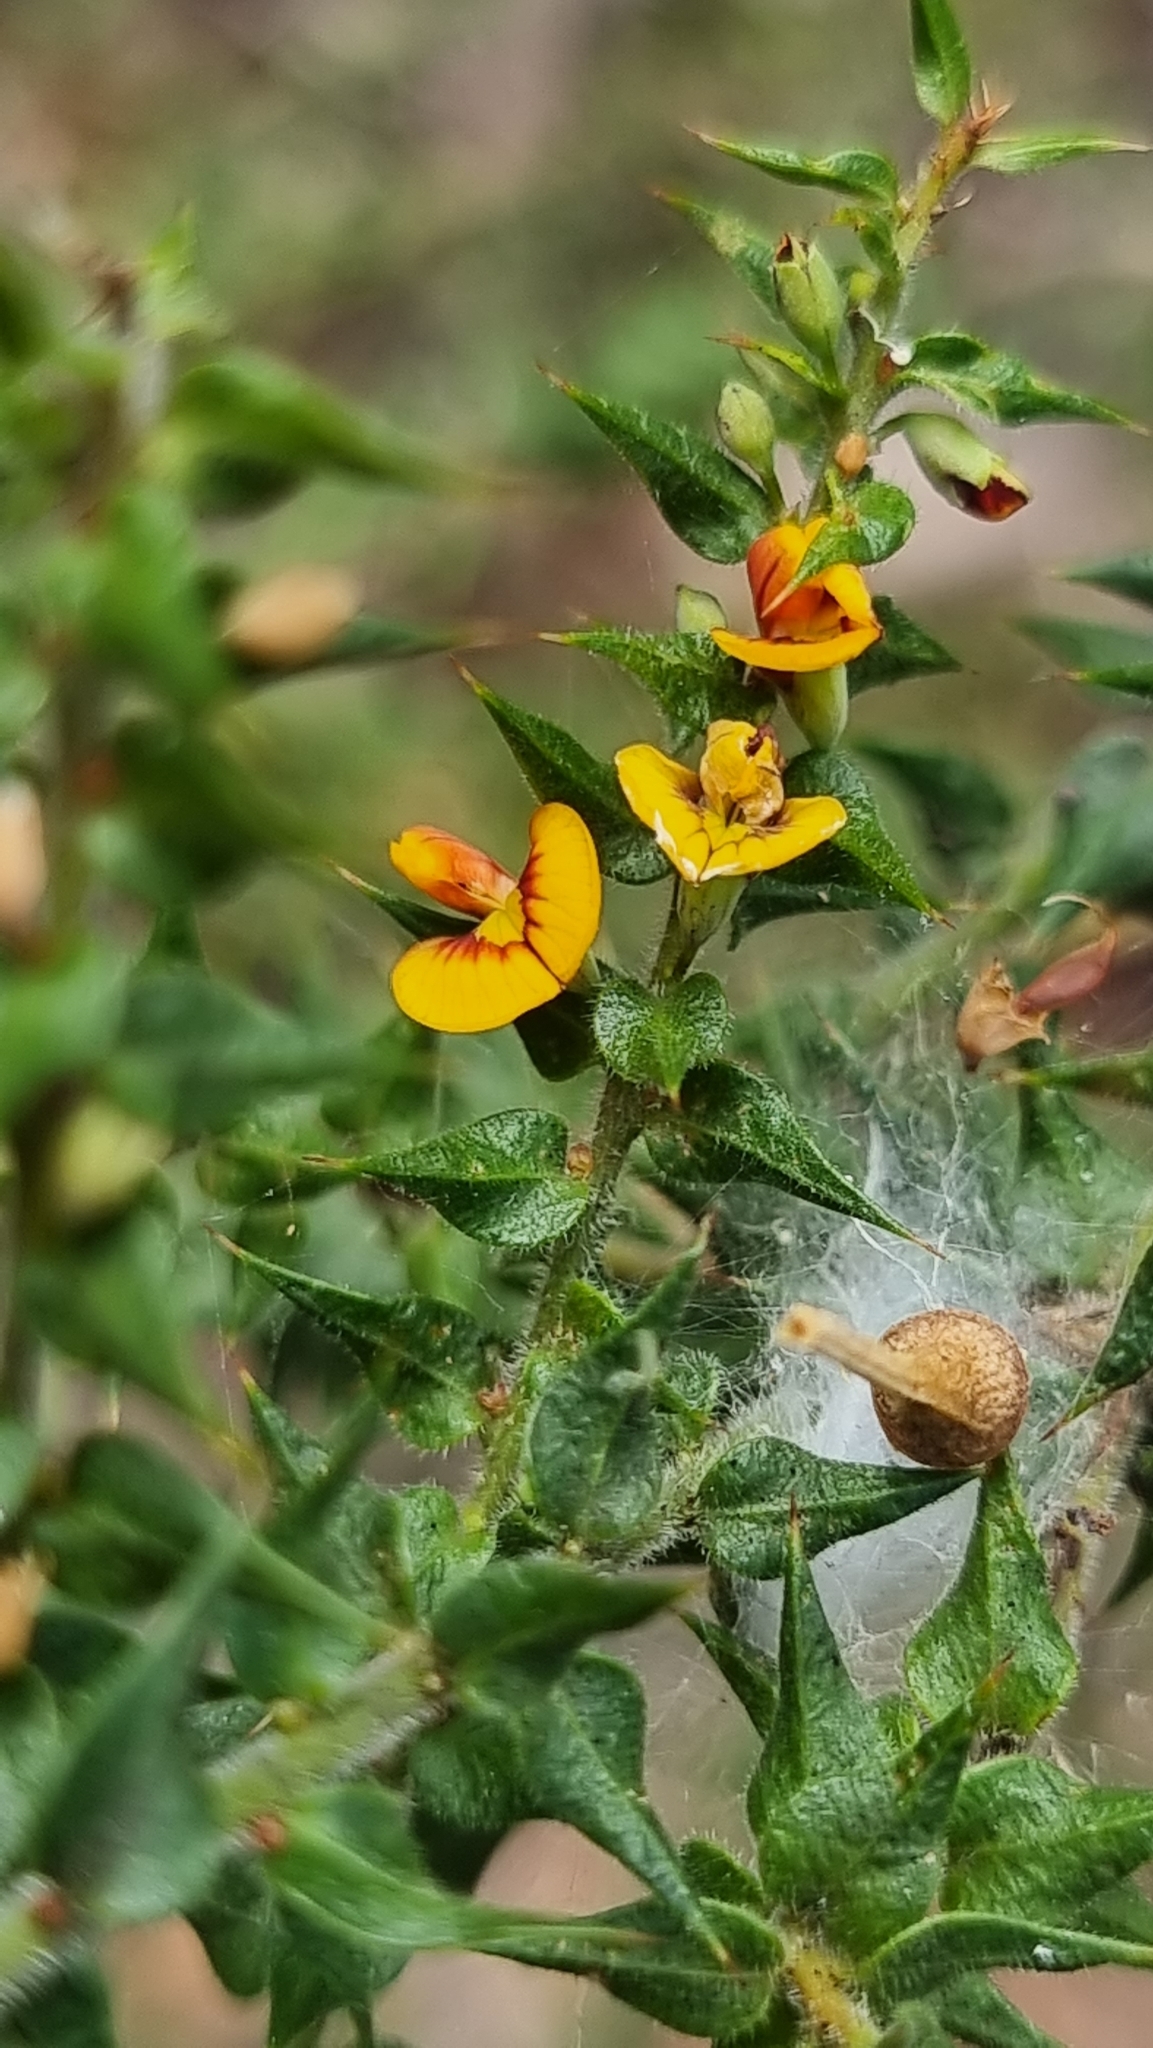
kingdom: Plantae
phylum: Tracheophyta
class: Magnoliopsida
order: Fabales
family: Fabaceae
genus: Daviesia
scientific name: Daviesia villifera
